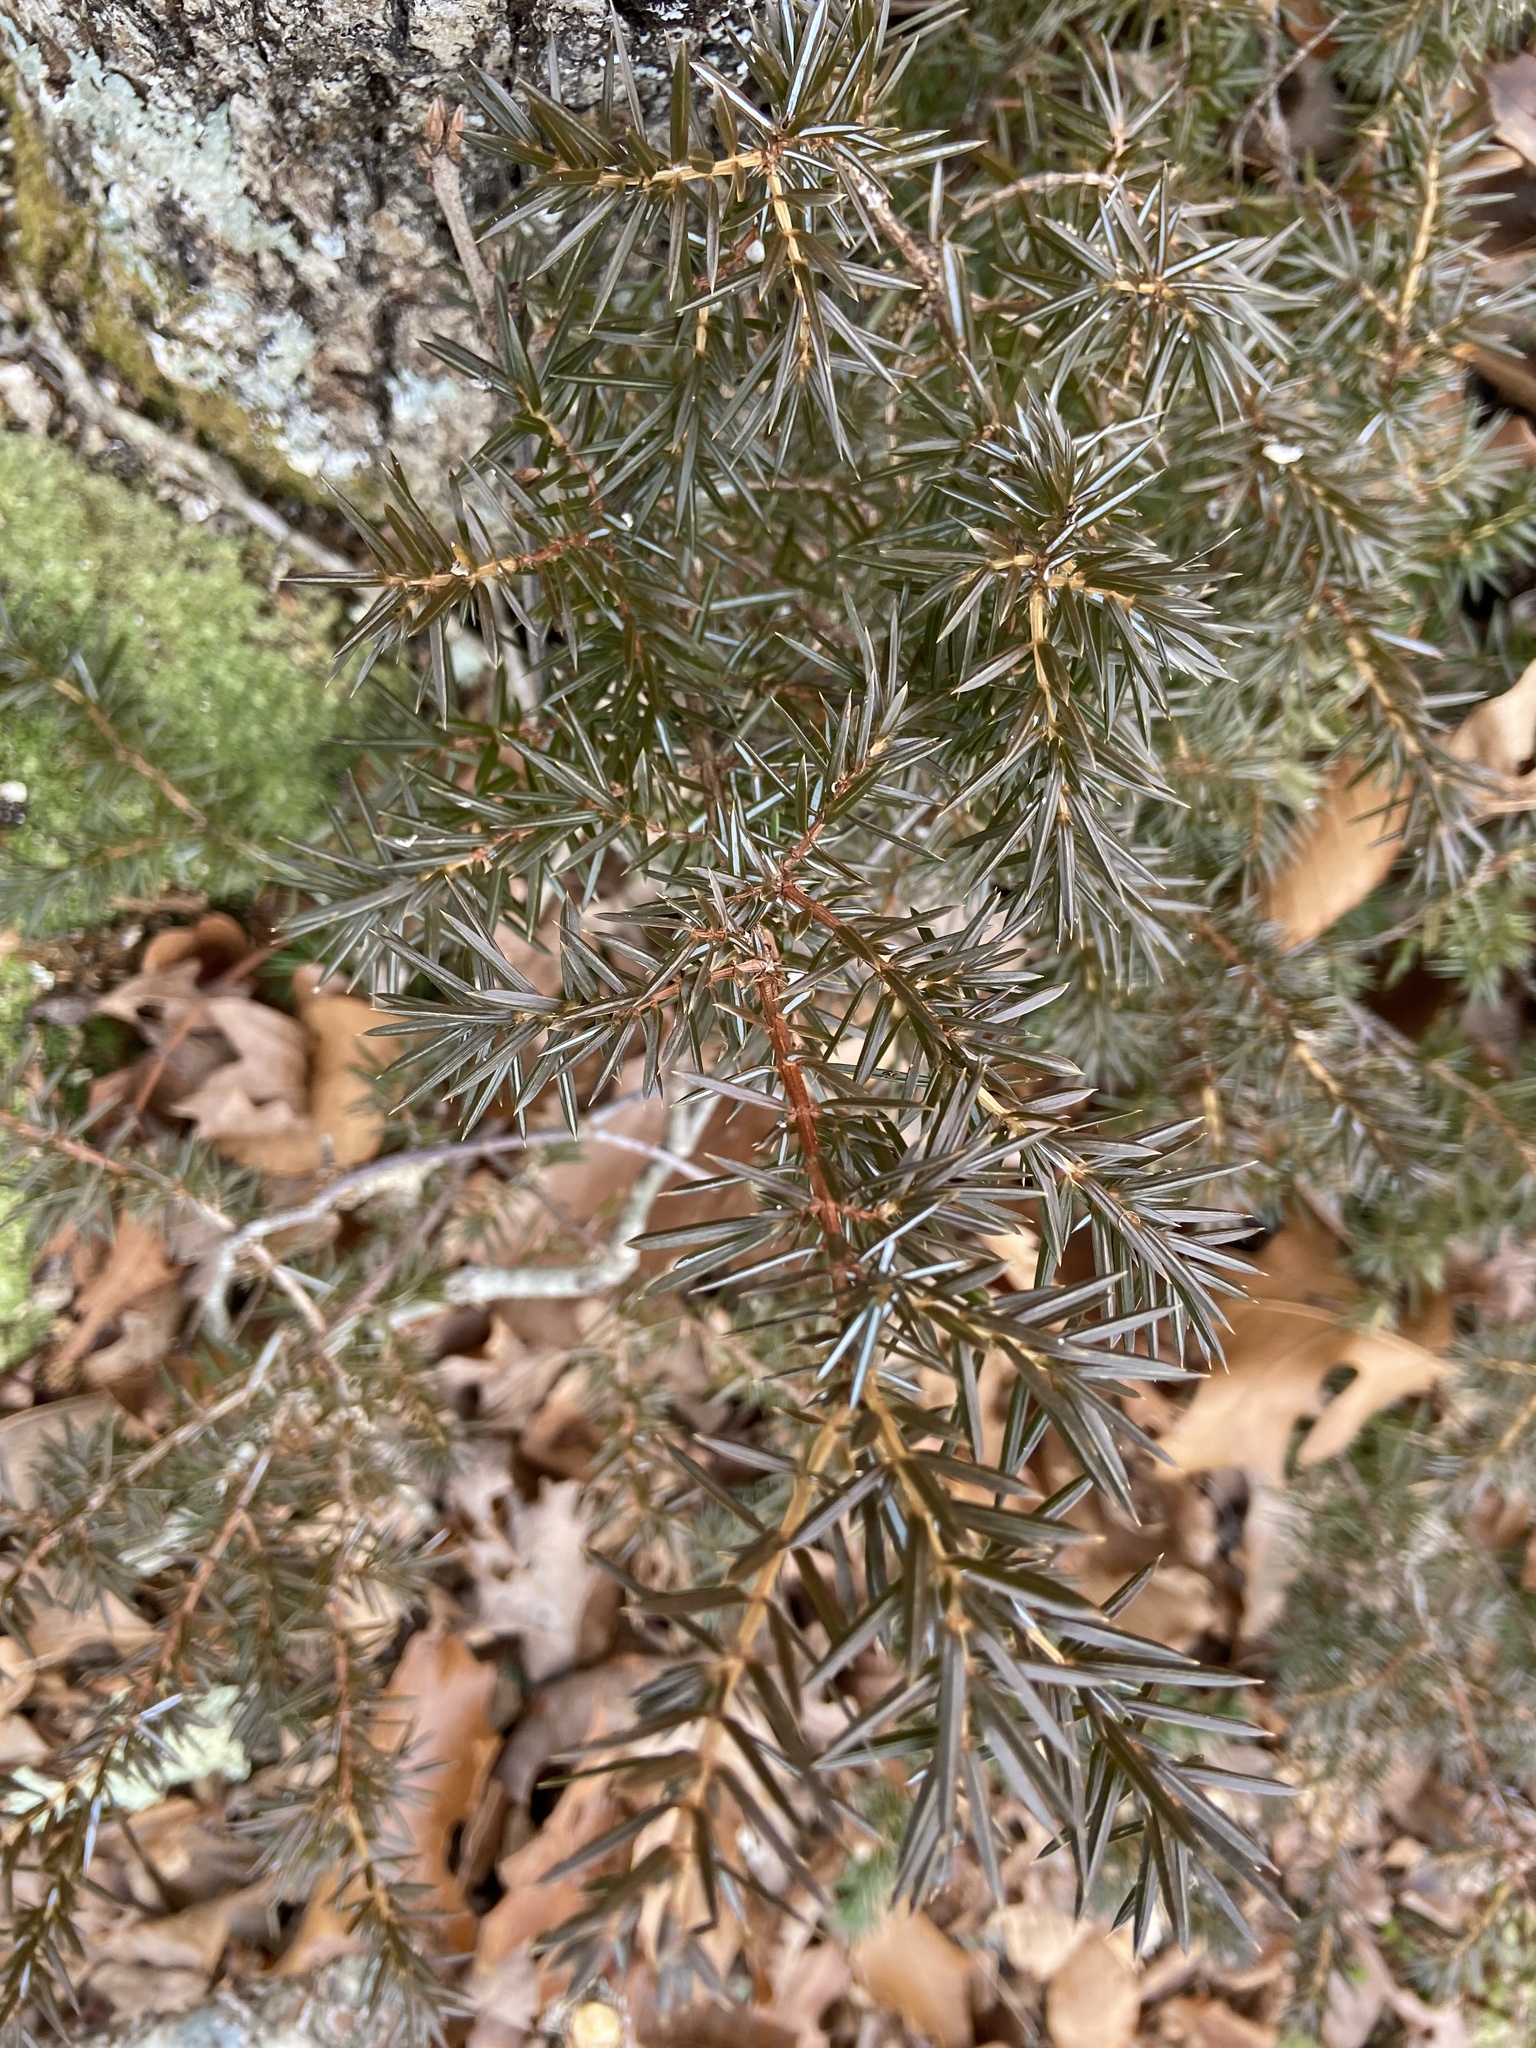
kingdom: Plantae
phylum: Tracheophyta
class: Pinopsida
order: Pinales
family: Cupressaceae
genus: Juniperus
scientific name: Juniperus communis
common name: Common juniper
